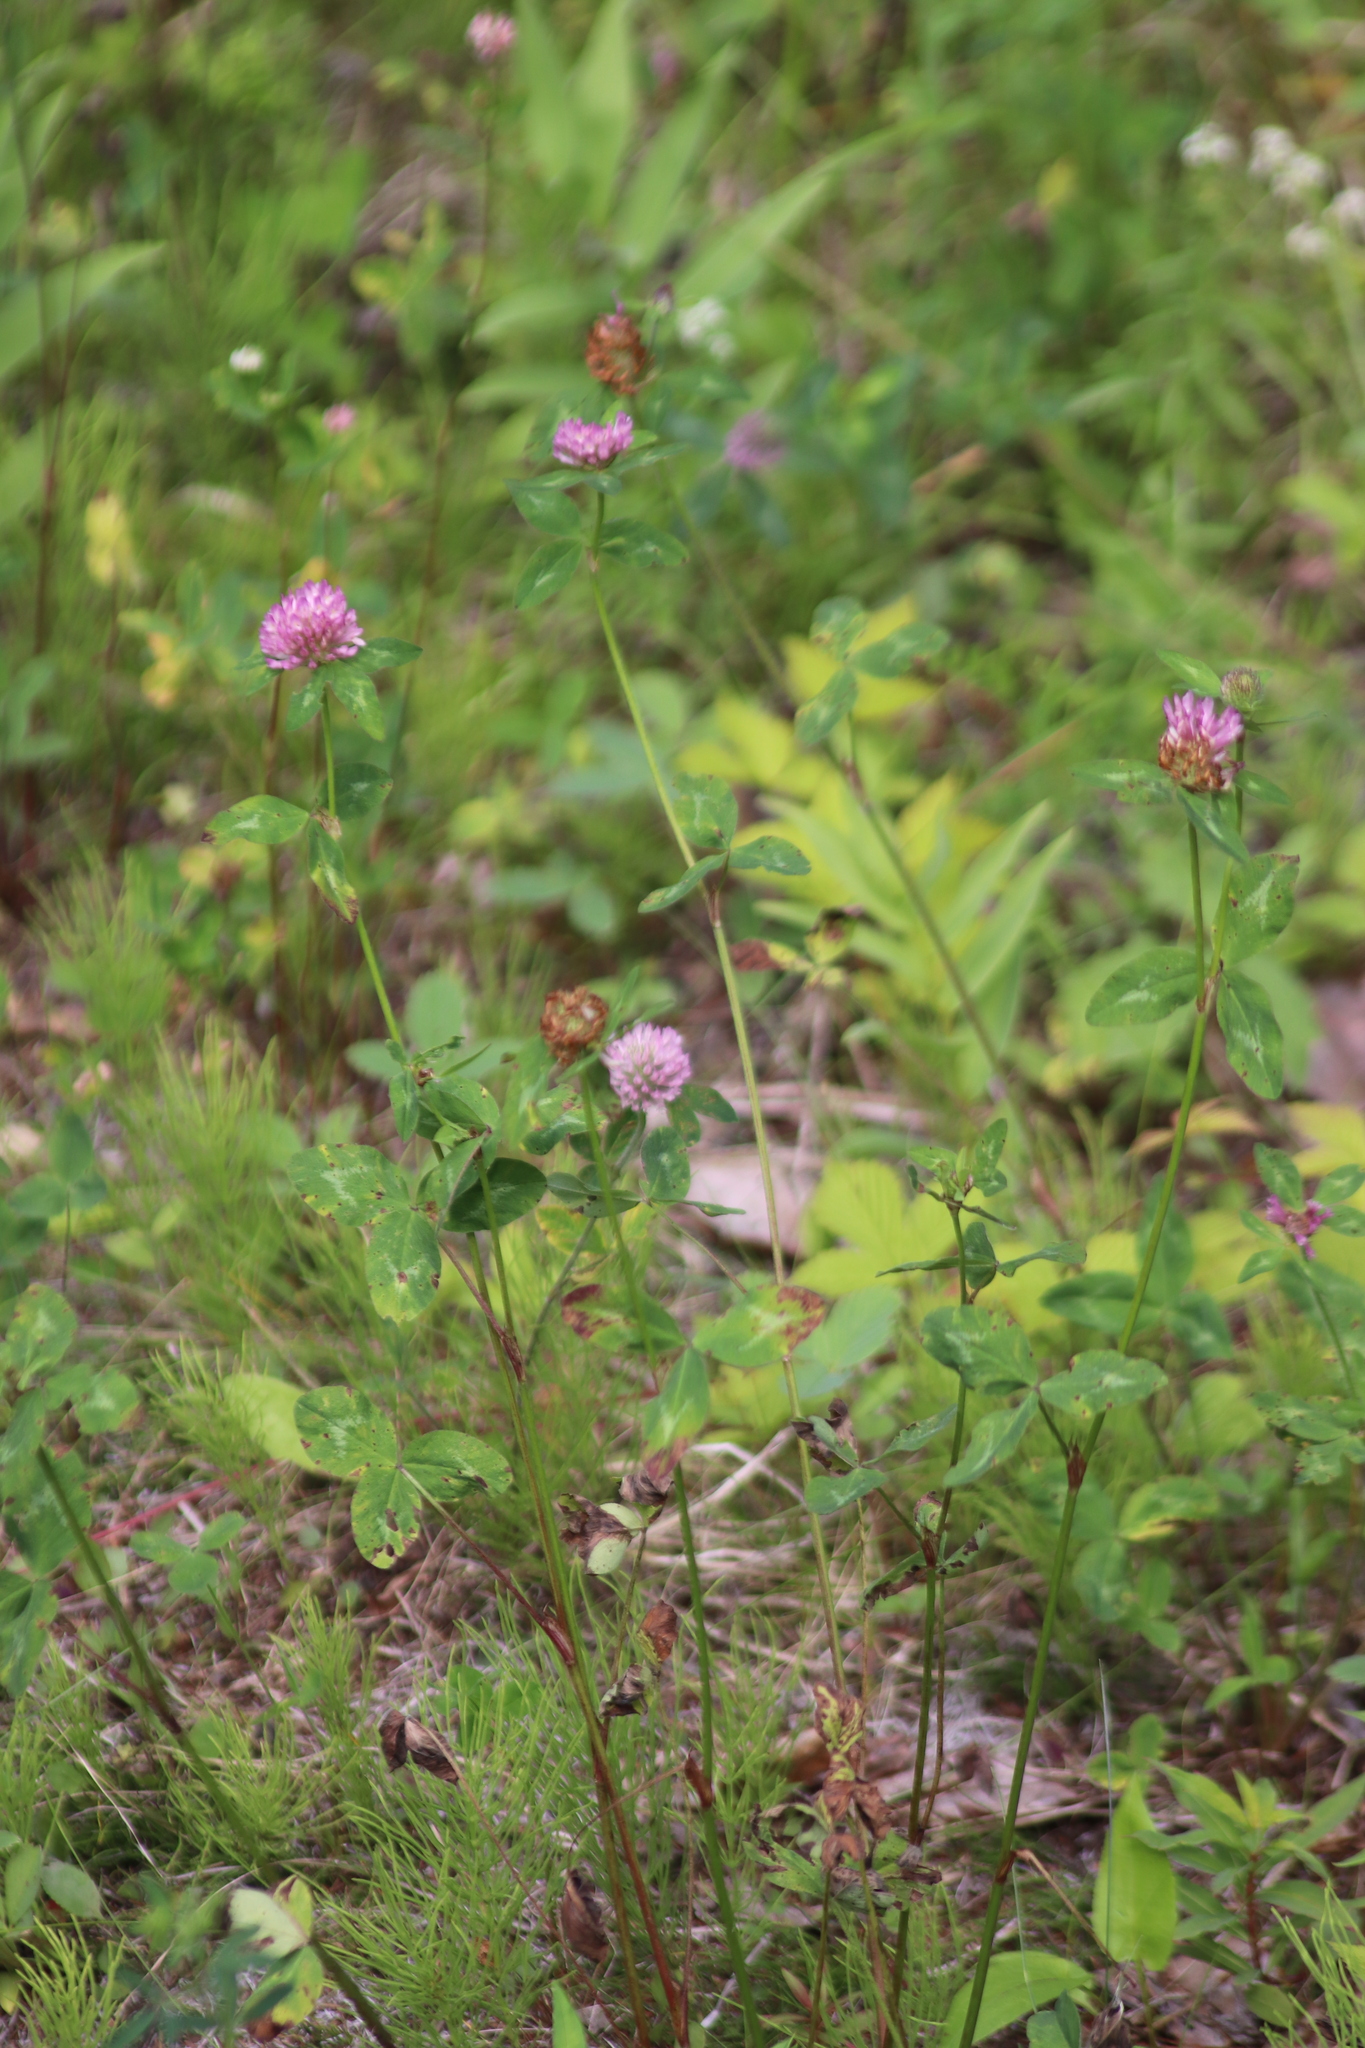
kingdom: Plantae
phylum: Tracheophyta
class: Magnoliopsida
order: Fabales
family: Fabaceae
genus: Trifolium
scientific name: Trifolium pratense
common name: Red clover
